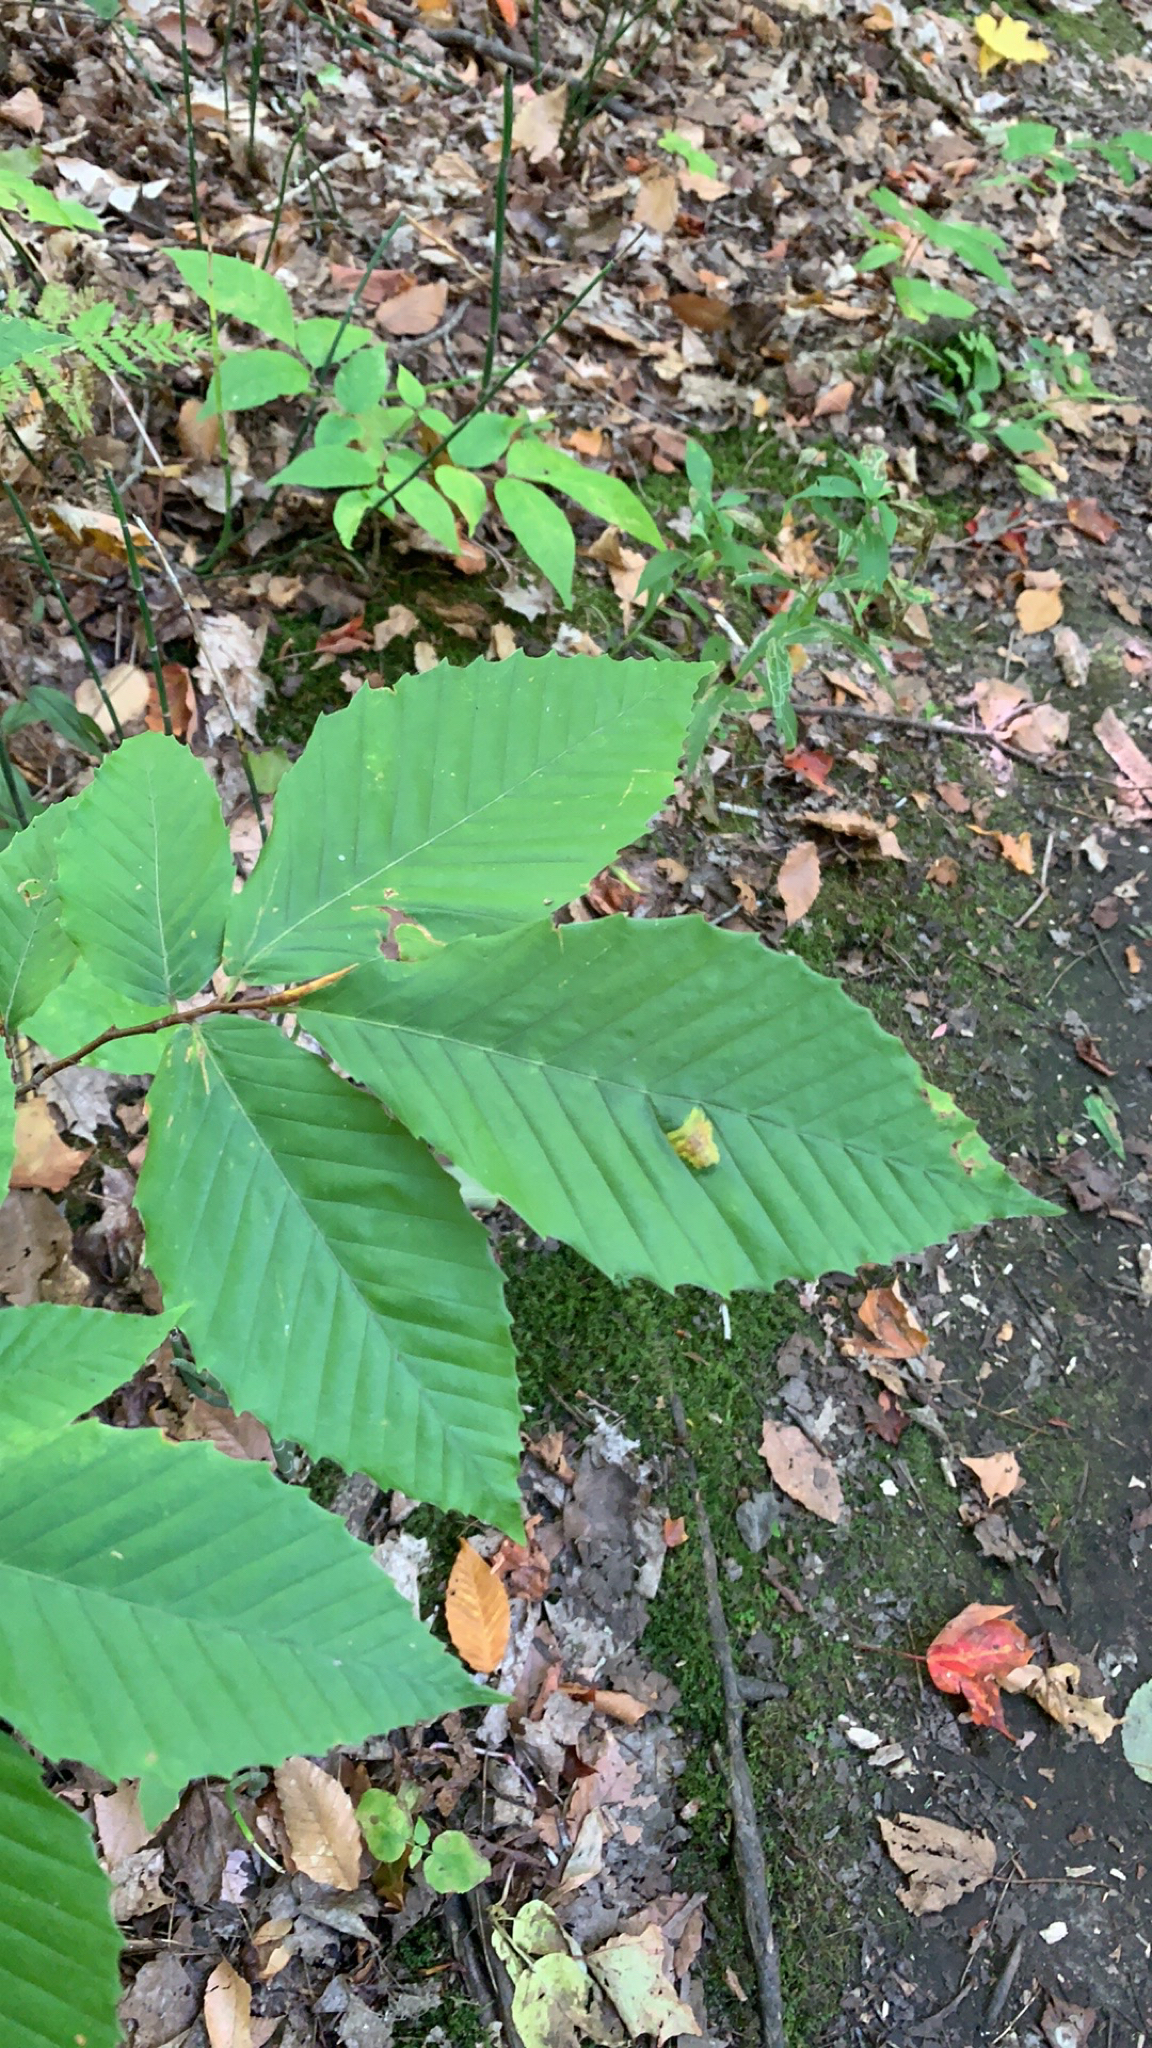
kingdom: Plantae
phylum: Tracheophyta
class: Magnoliopsida
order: Fagales
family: Fagaceae
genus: Fagus
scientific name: Fagus grandifolia
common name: American beech
